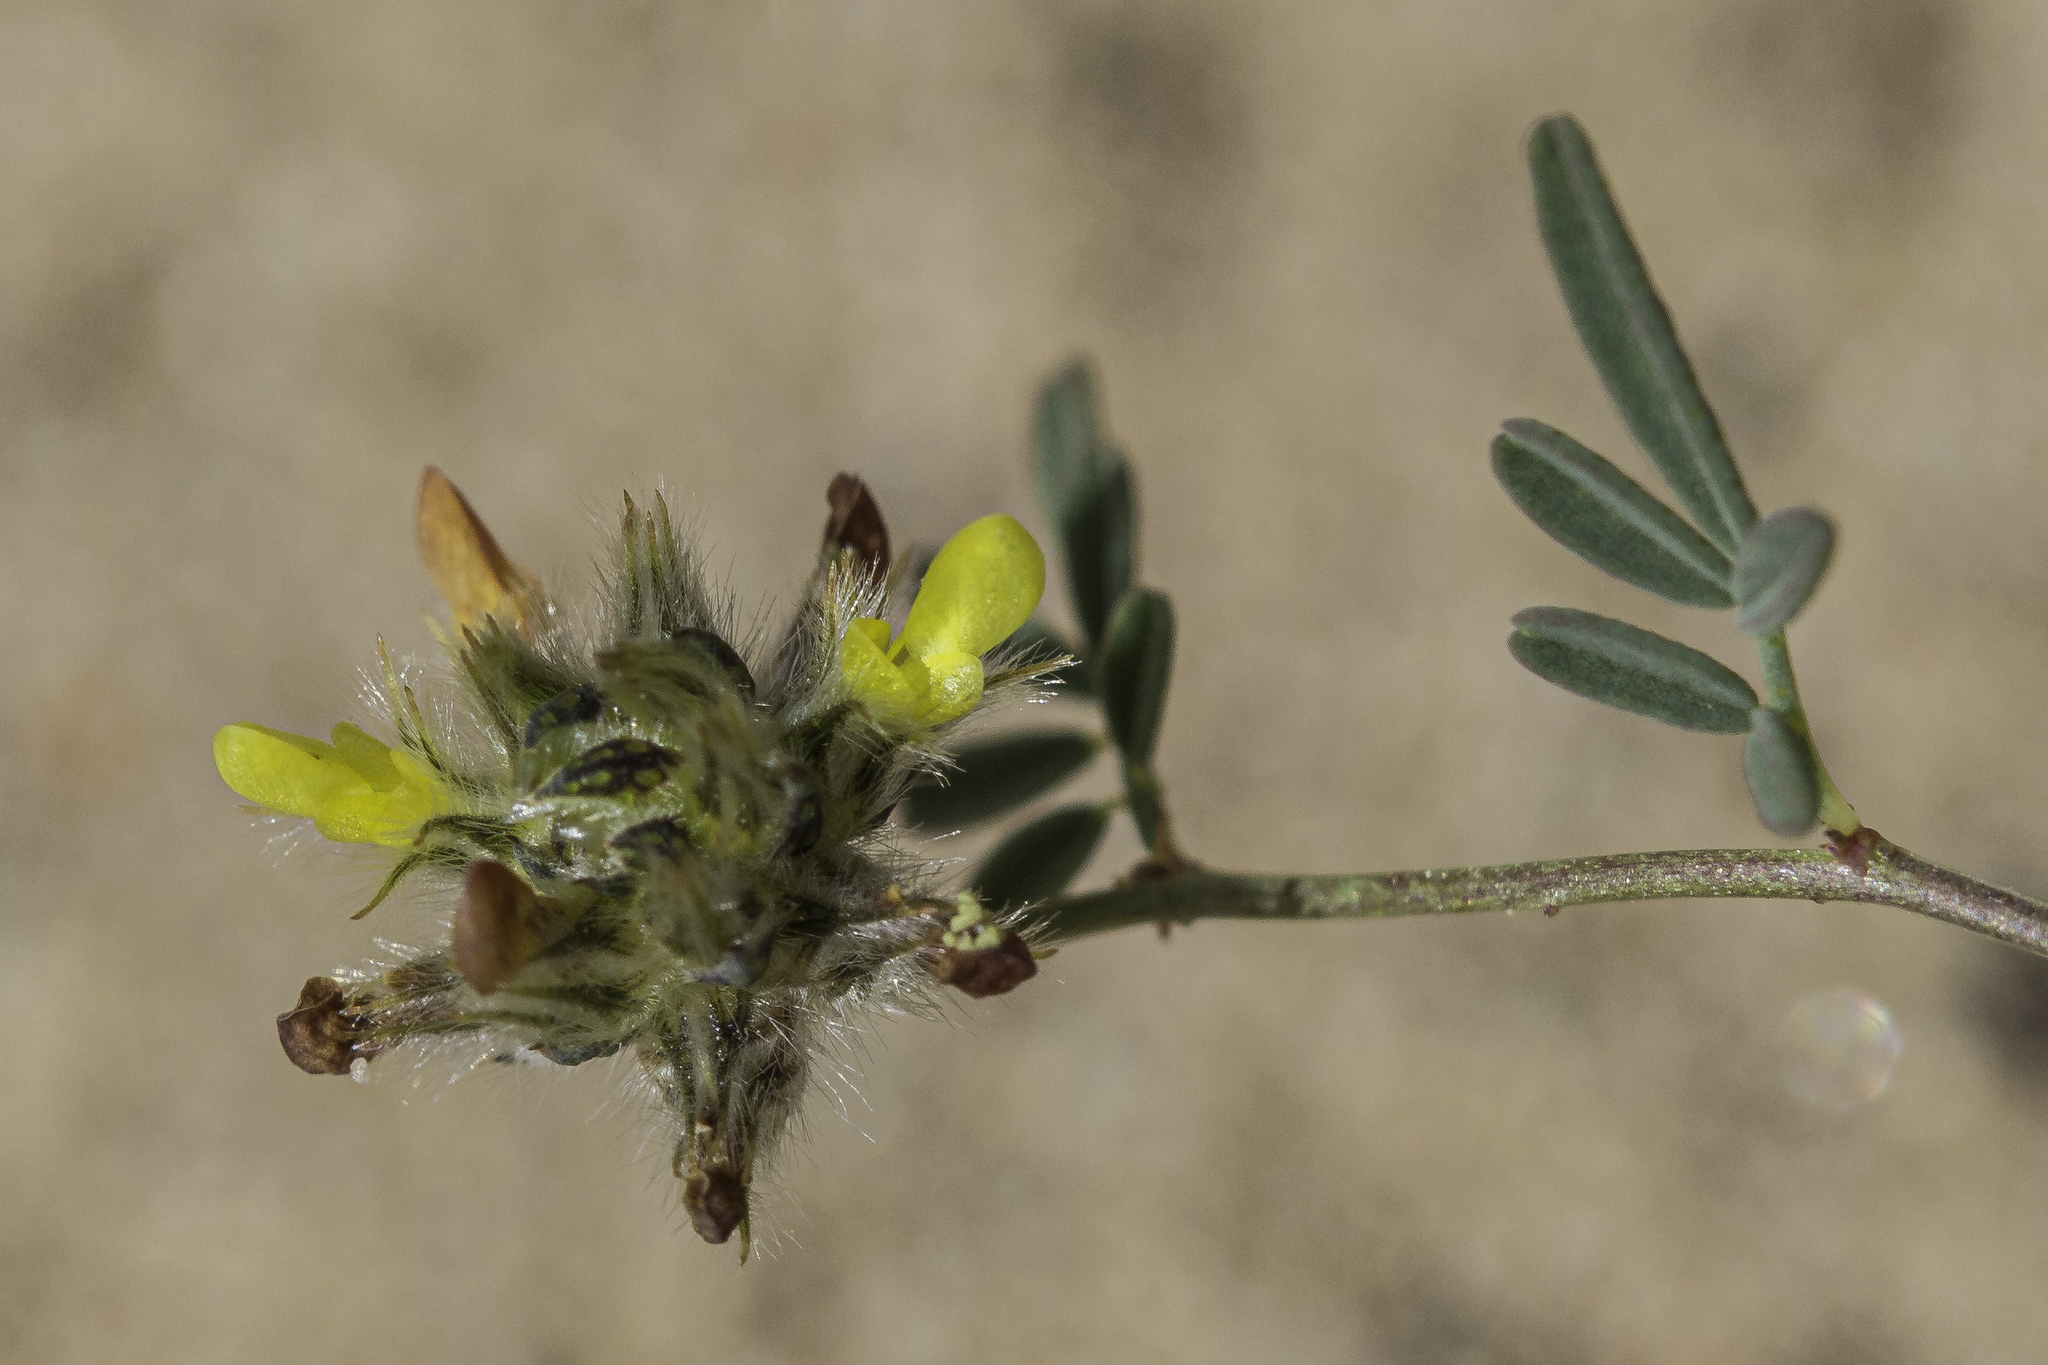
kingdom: Plantae
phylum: Tracheophyta
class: Magnoliopsida
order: Fabales
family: Fabaceae
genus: Dalea
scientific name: Dalea brachystachya
